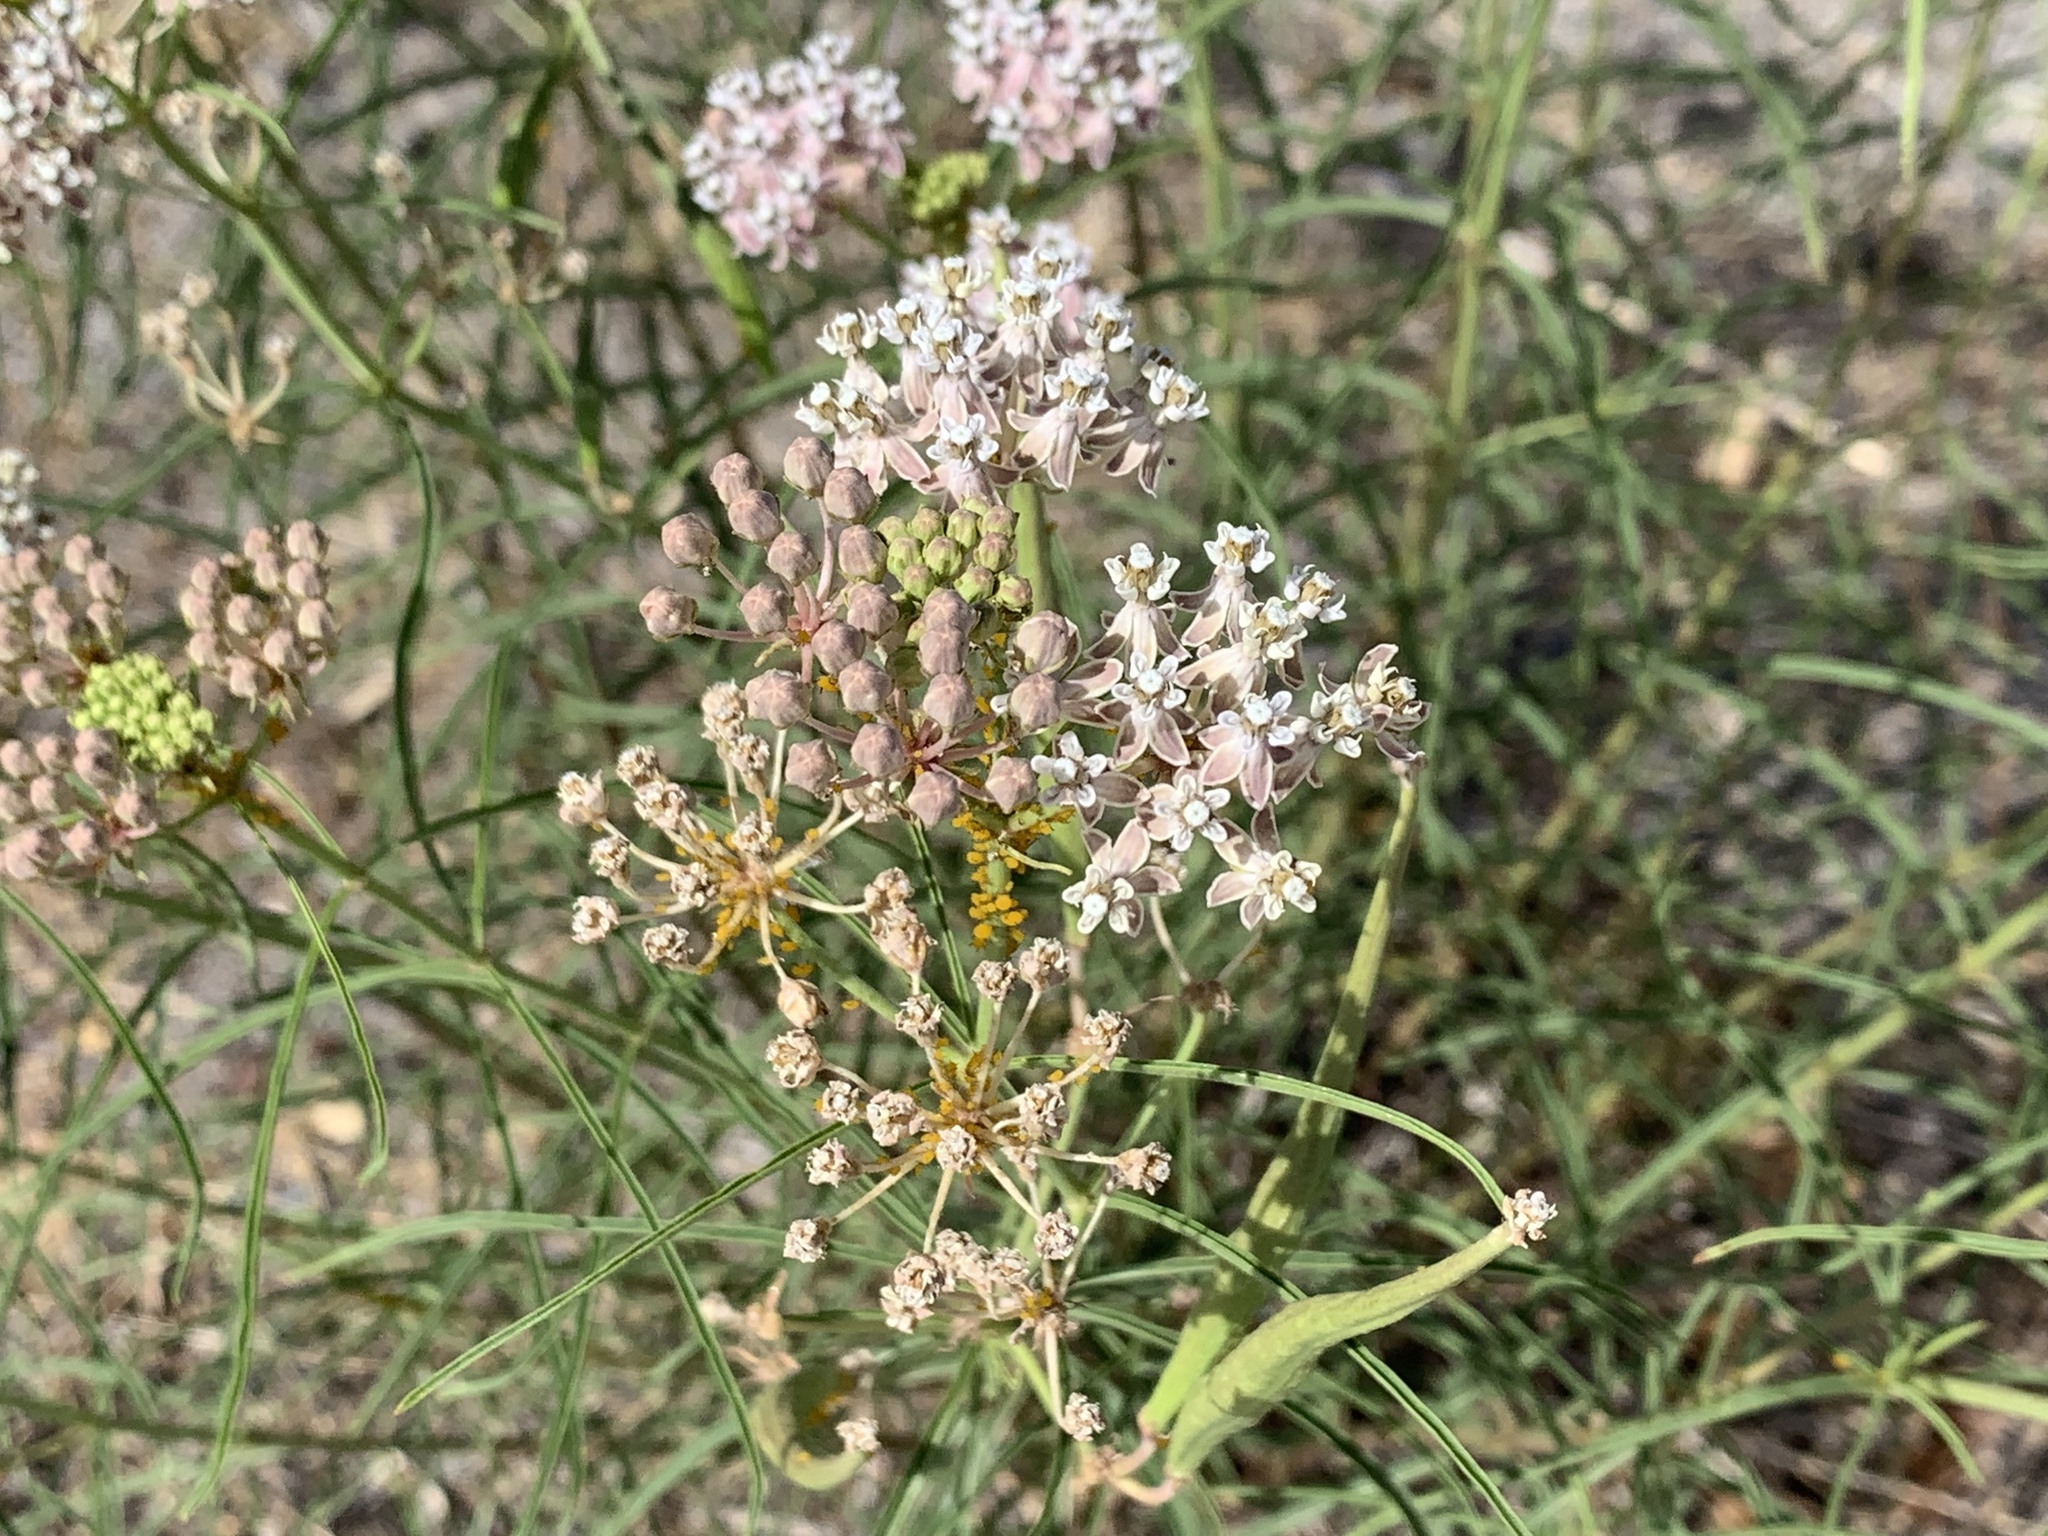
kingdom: Plantae
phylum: Tracheophyta
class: Magnoliopsida
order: Gentianales
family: Apocynaceae
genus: Asclepias
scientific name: Asclepias fascicularis
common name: Mexican milkweed
